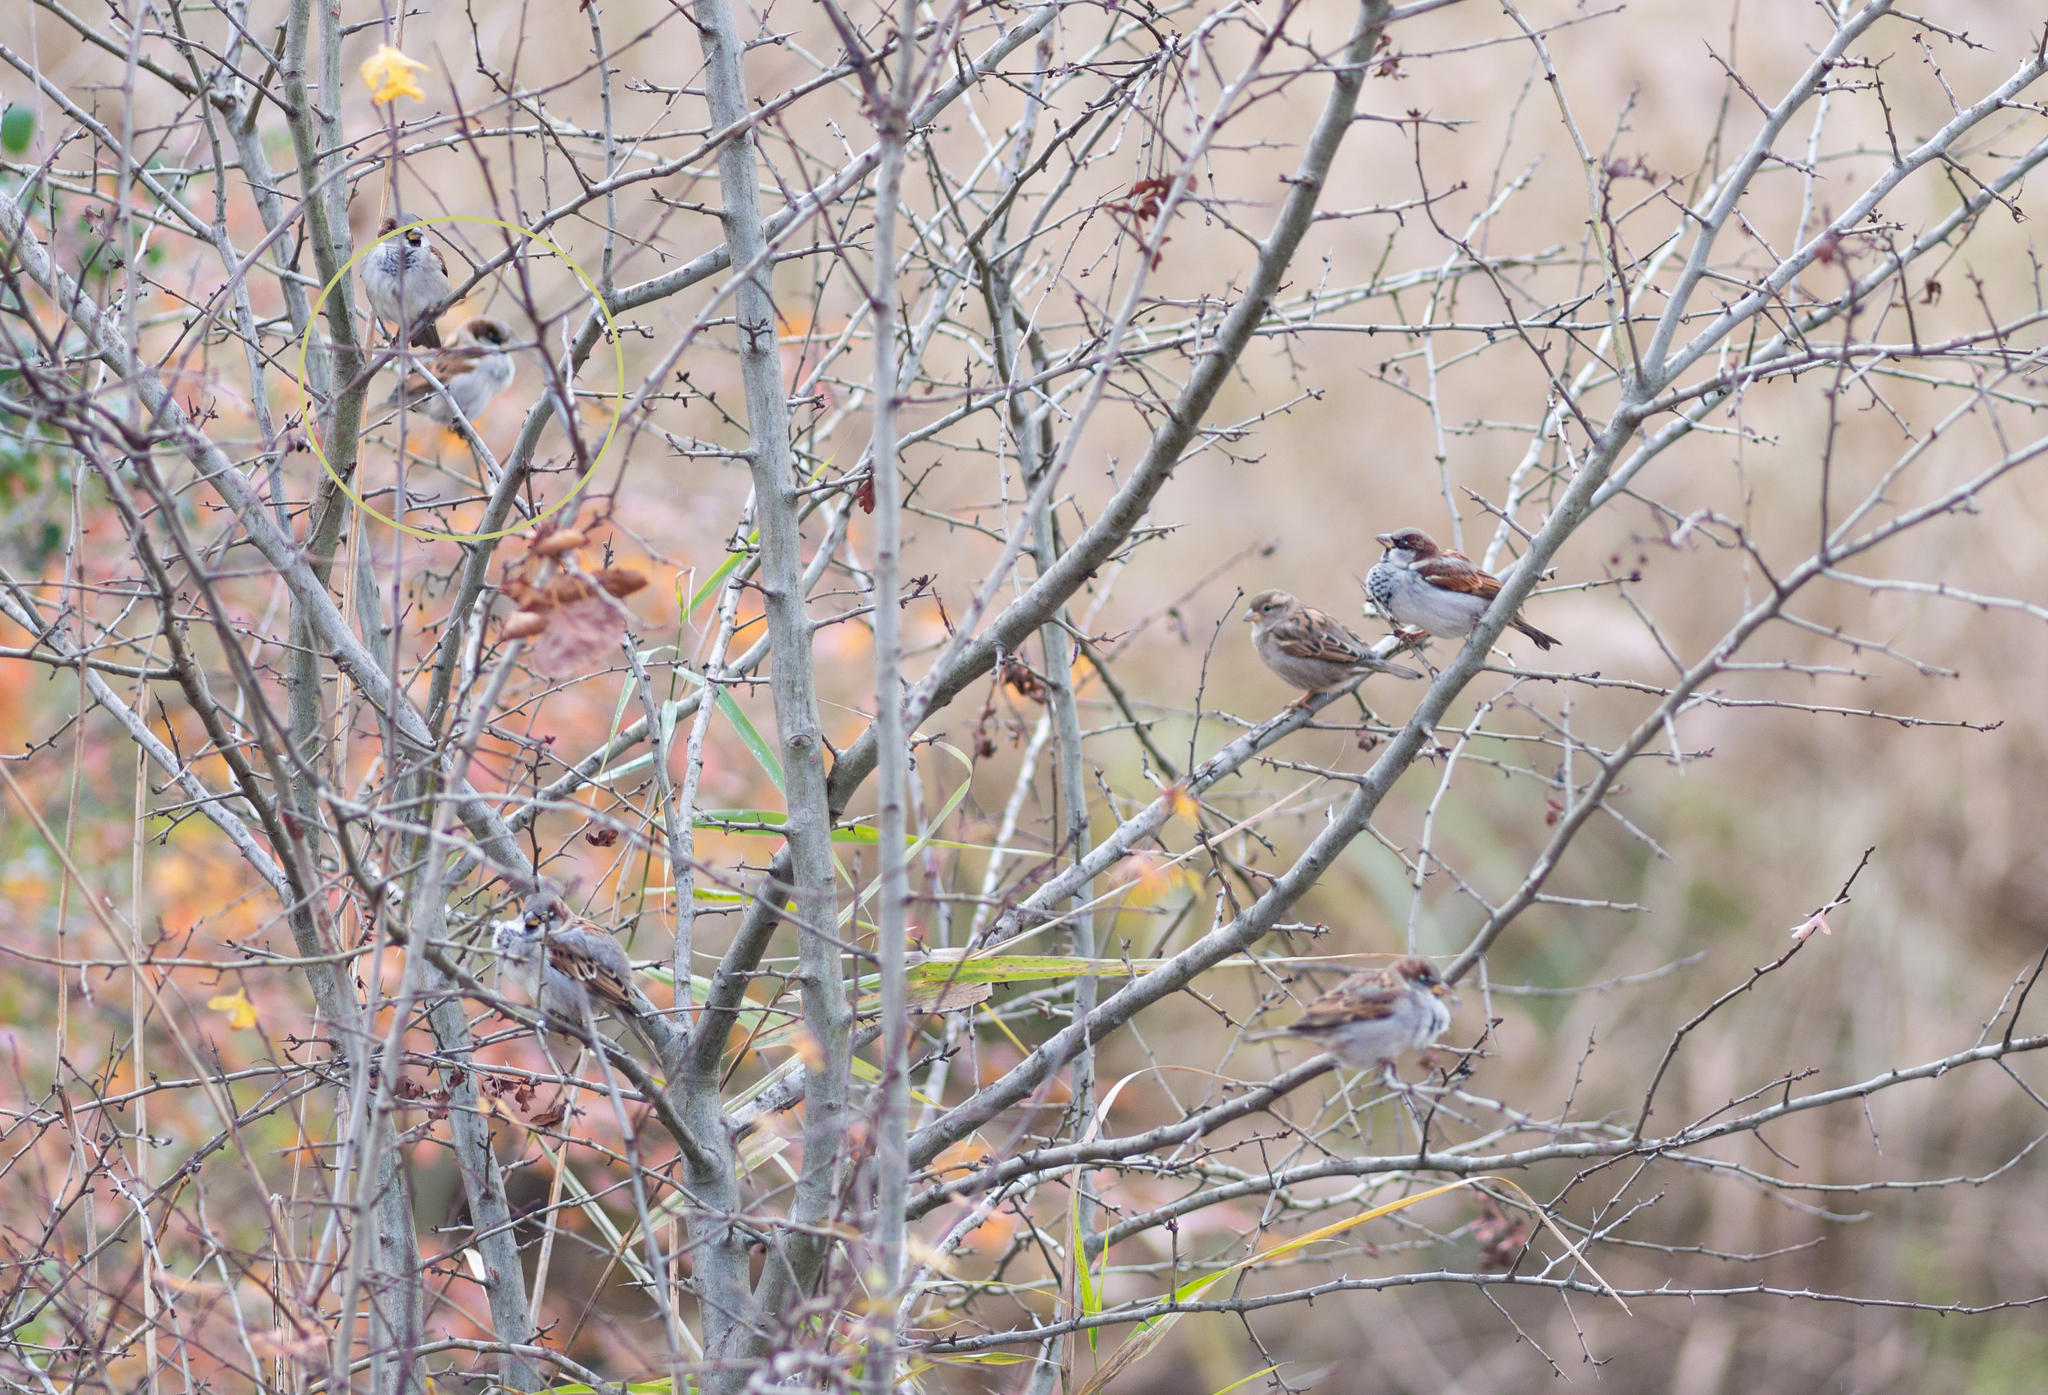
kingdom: Animalia
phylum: Chordata
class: Aves
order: Passeriformes
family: Passeridae
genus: Passer
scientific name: Passer domesticus
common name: House sparrow
